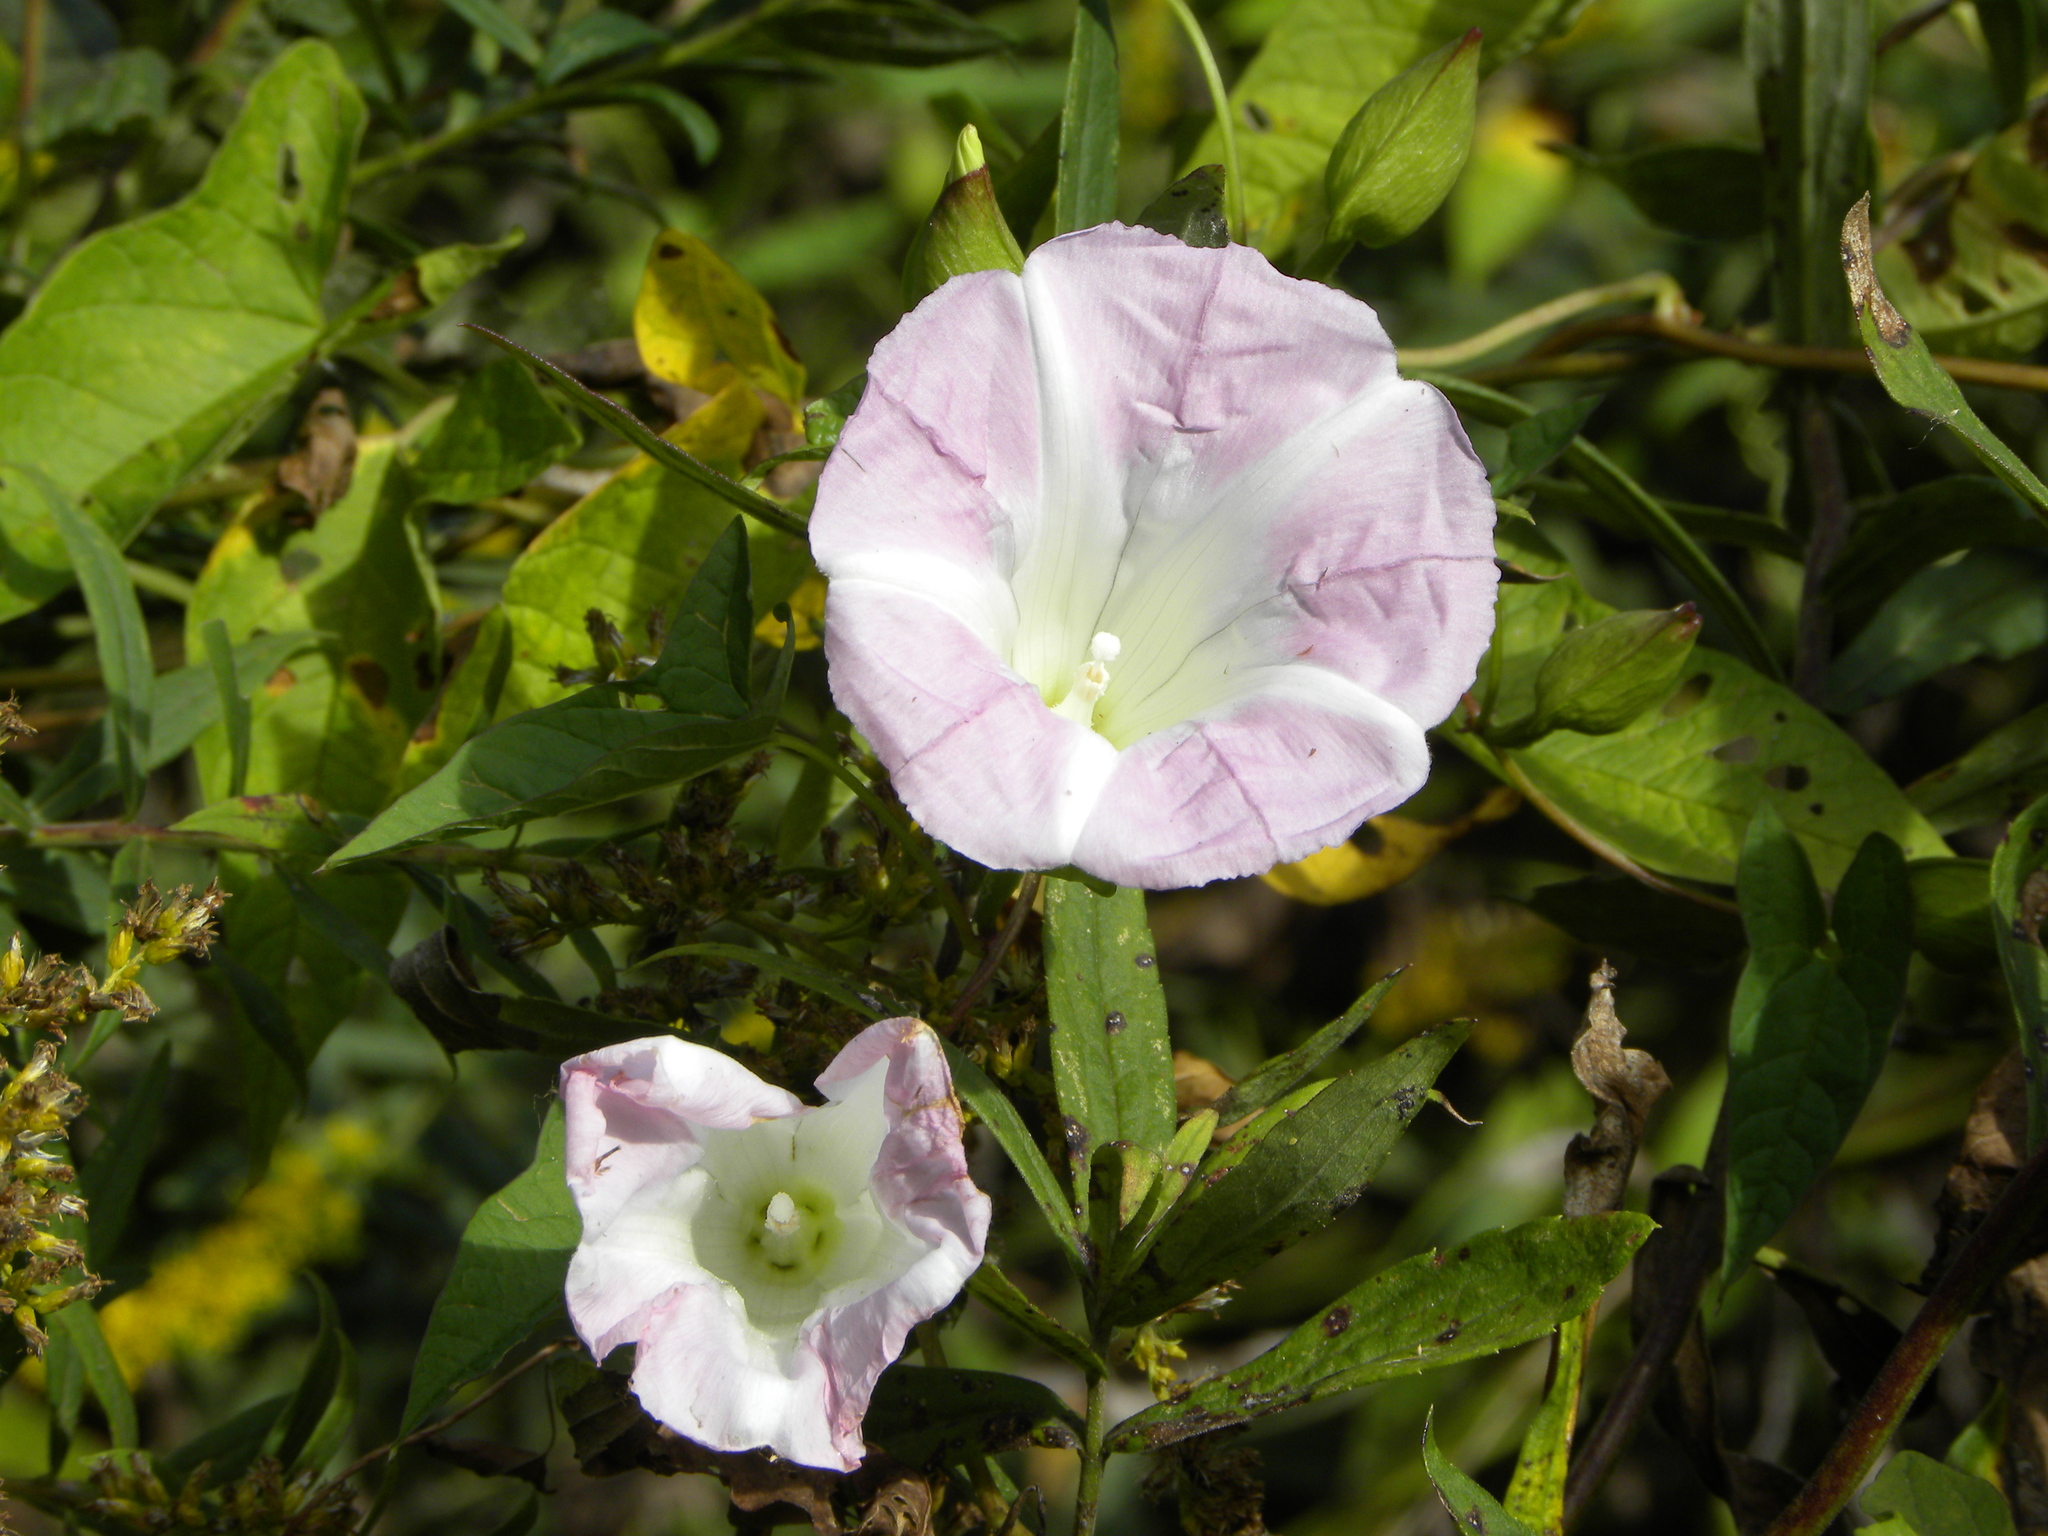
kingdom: Plantae
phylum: Tracheophyta
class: Magnoliopsida
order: Solanales
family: Convolvulaceae
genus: Calystegia
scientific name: Calystegia sepium
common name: Hedge bindweed
